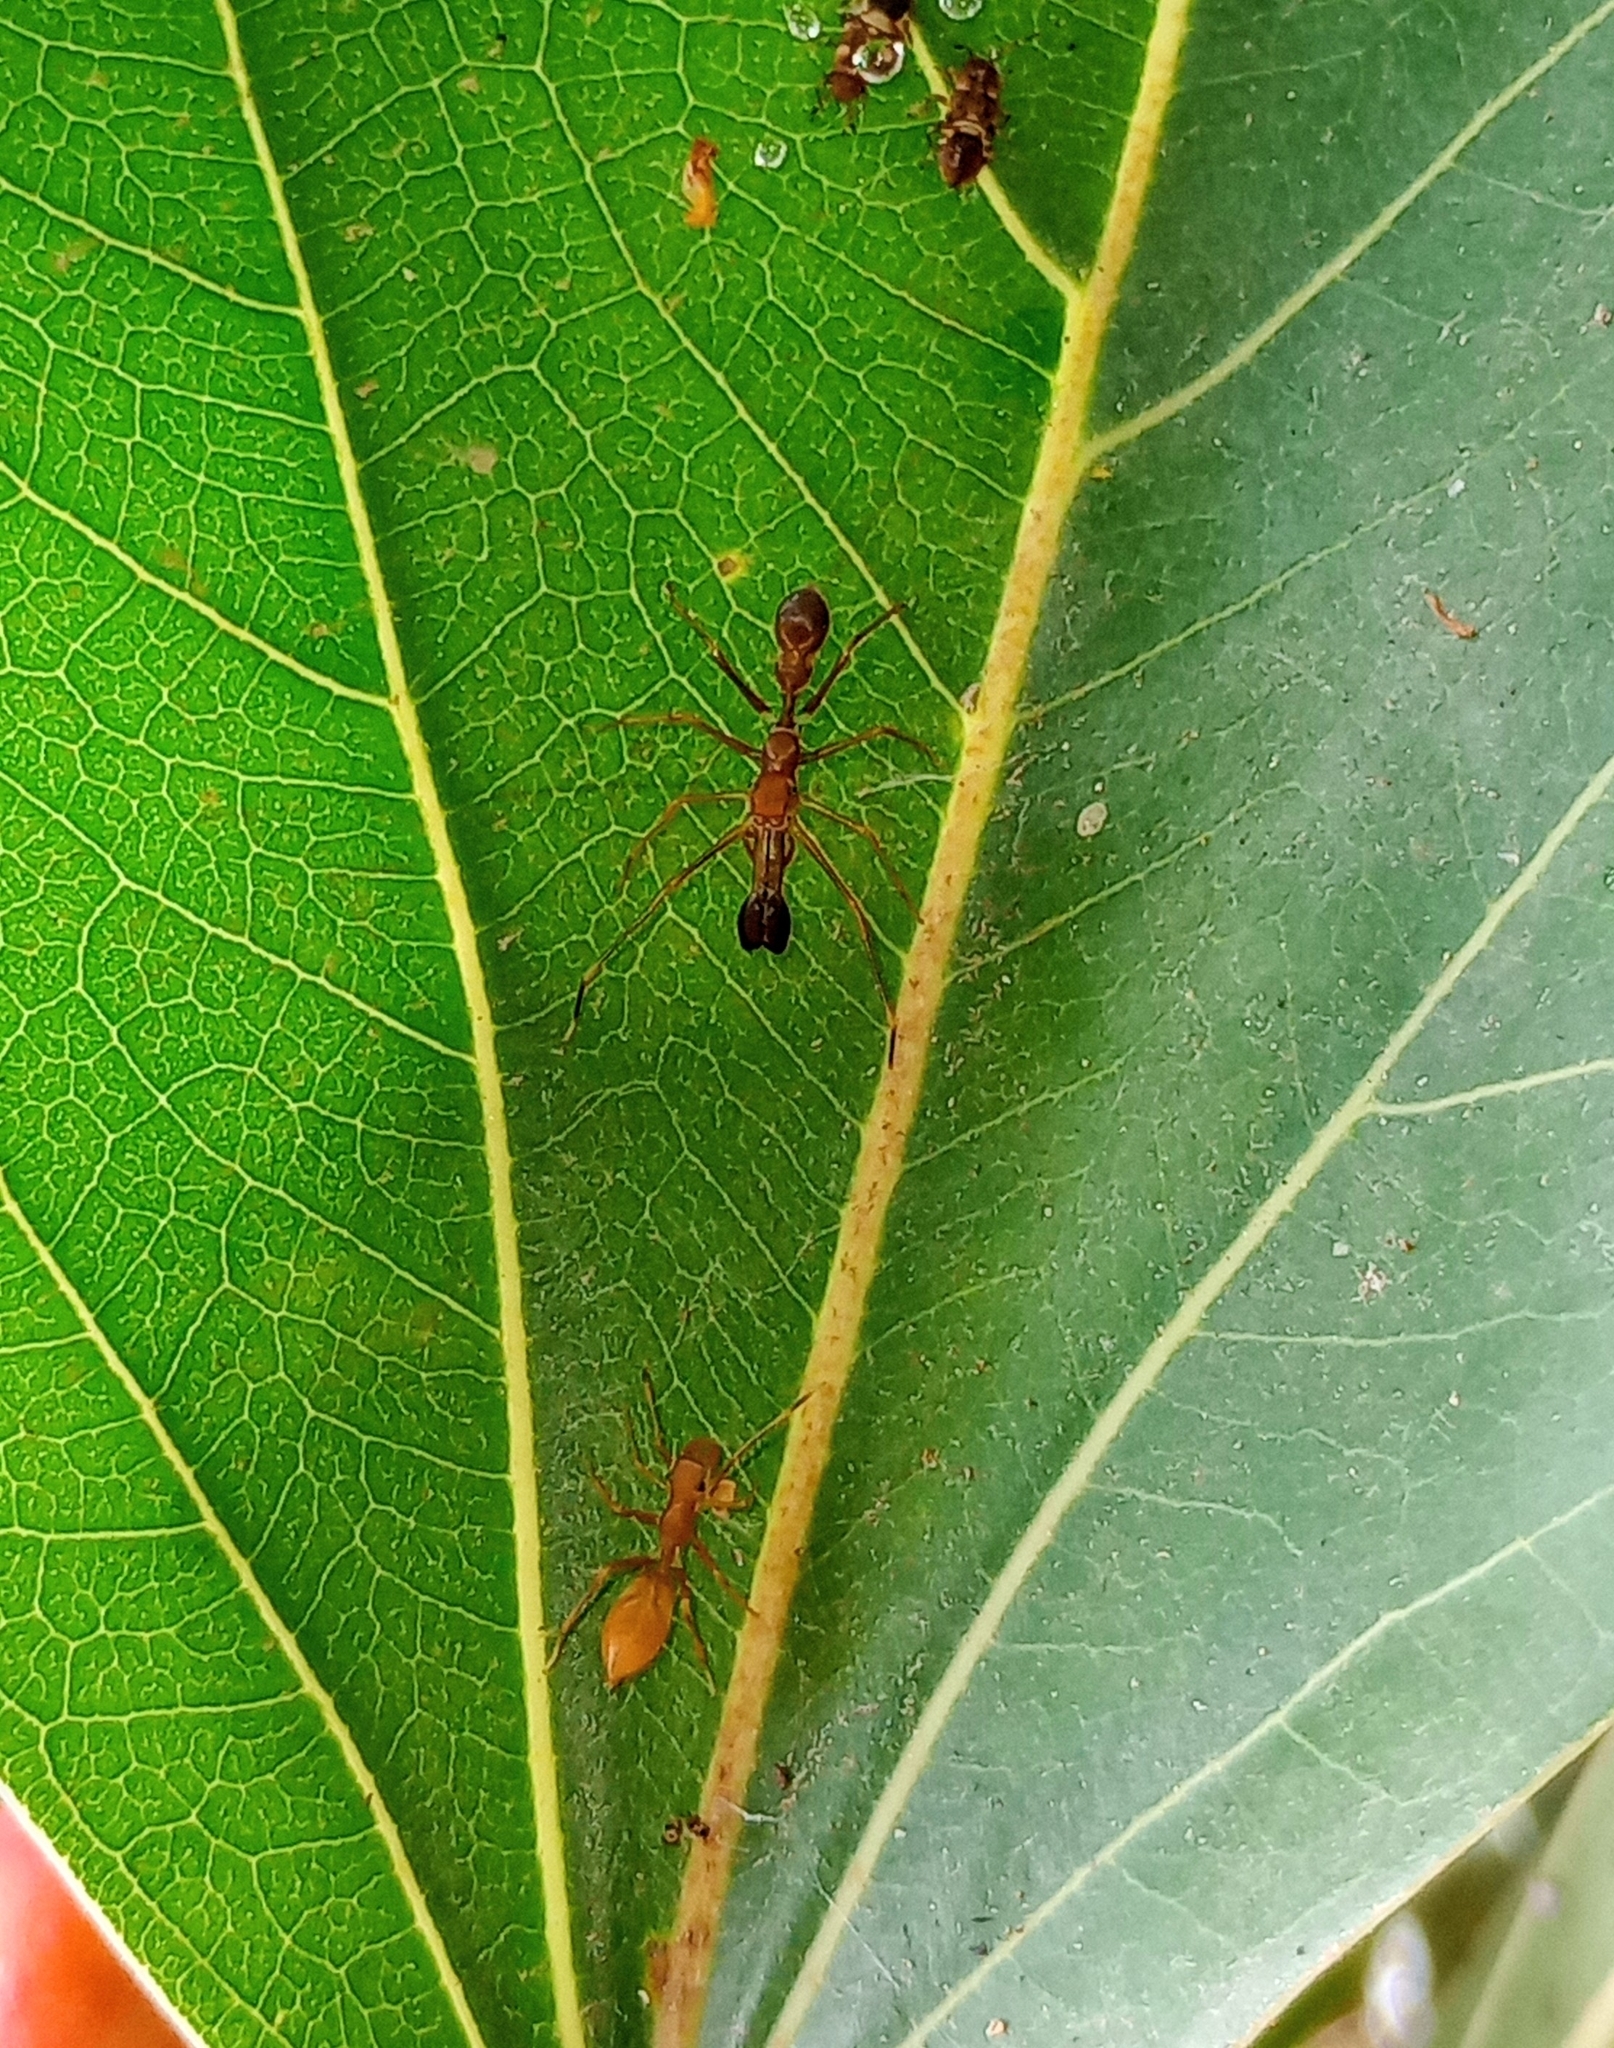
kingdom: Animalia
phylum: Arthropoda
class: Arachnida
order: Araneae
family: Salticidae
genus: Myrmaplata
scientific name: Myrmaplata plataleoides
